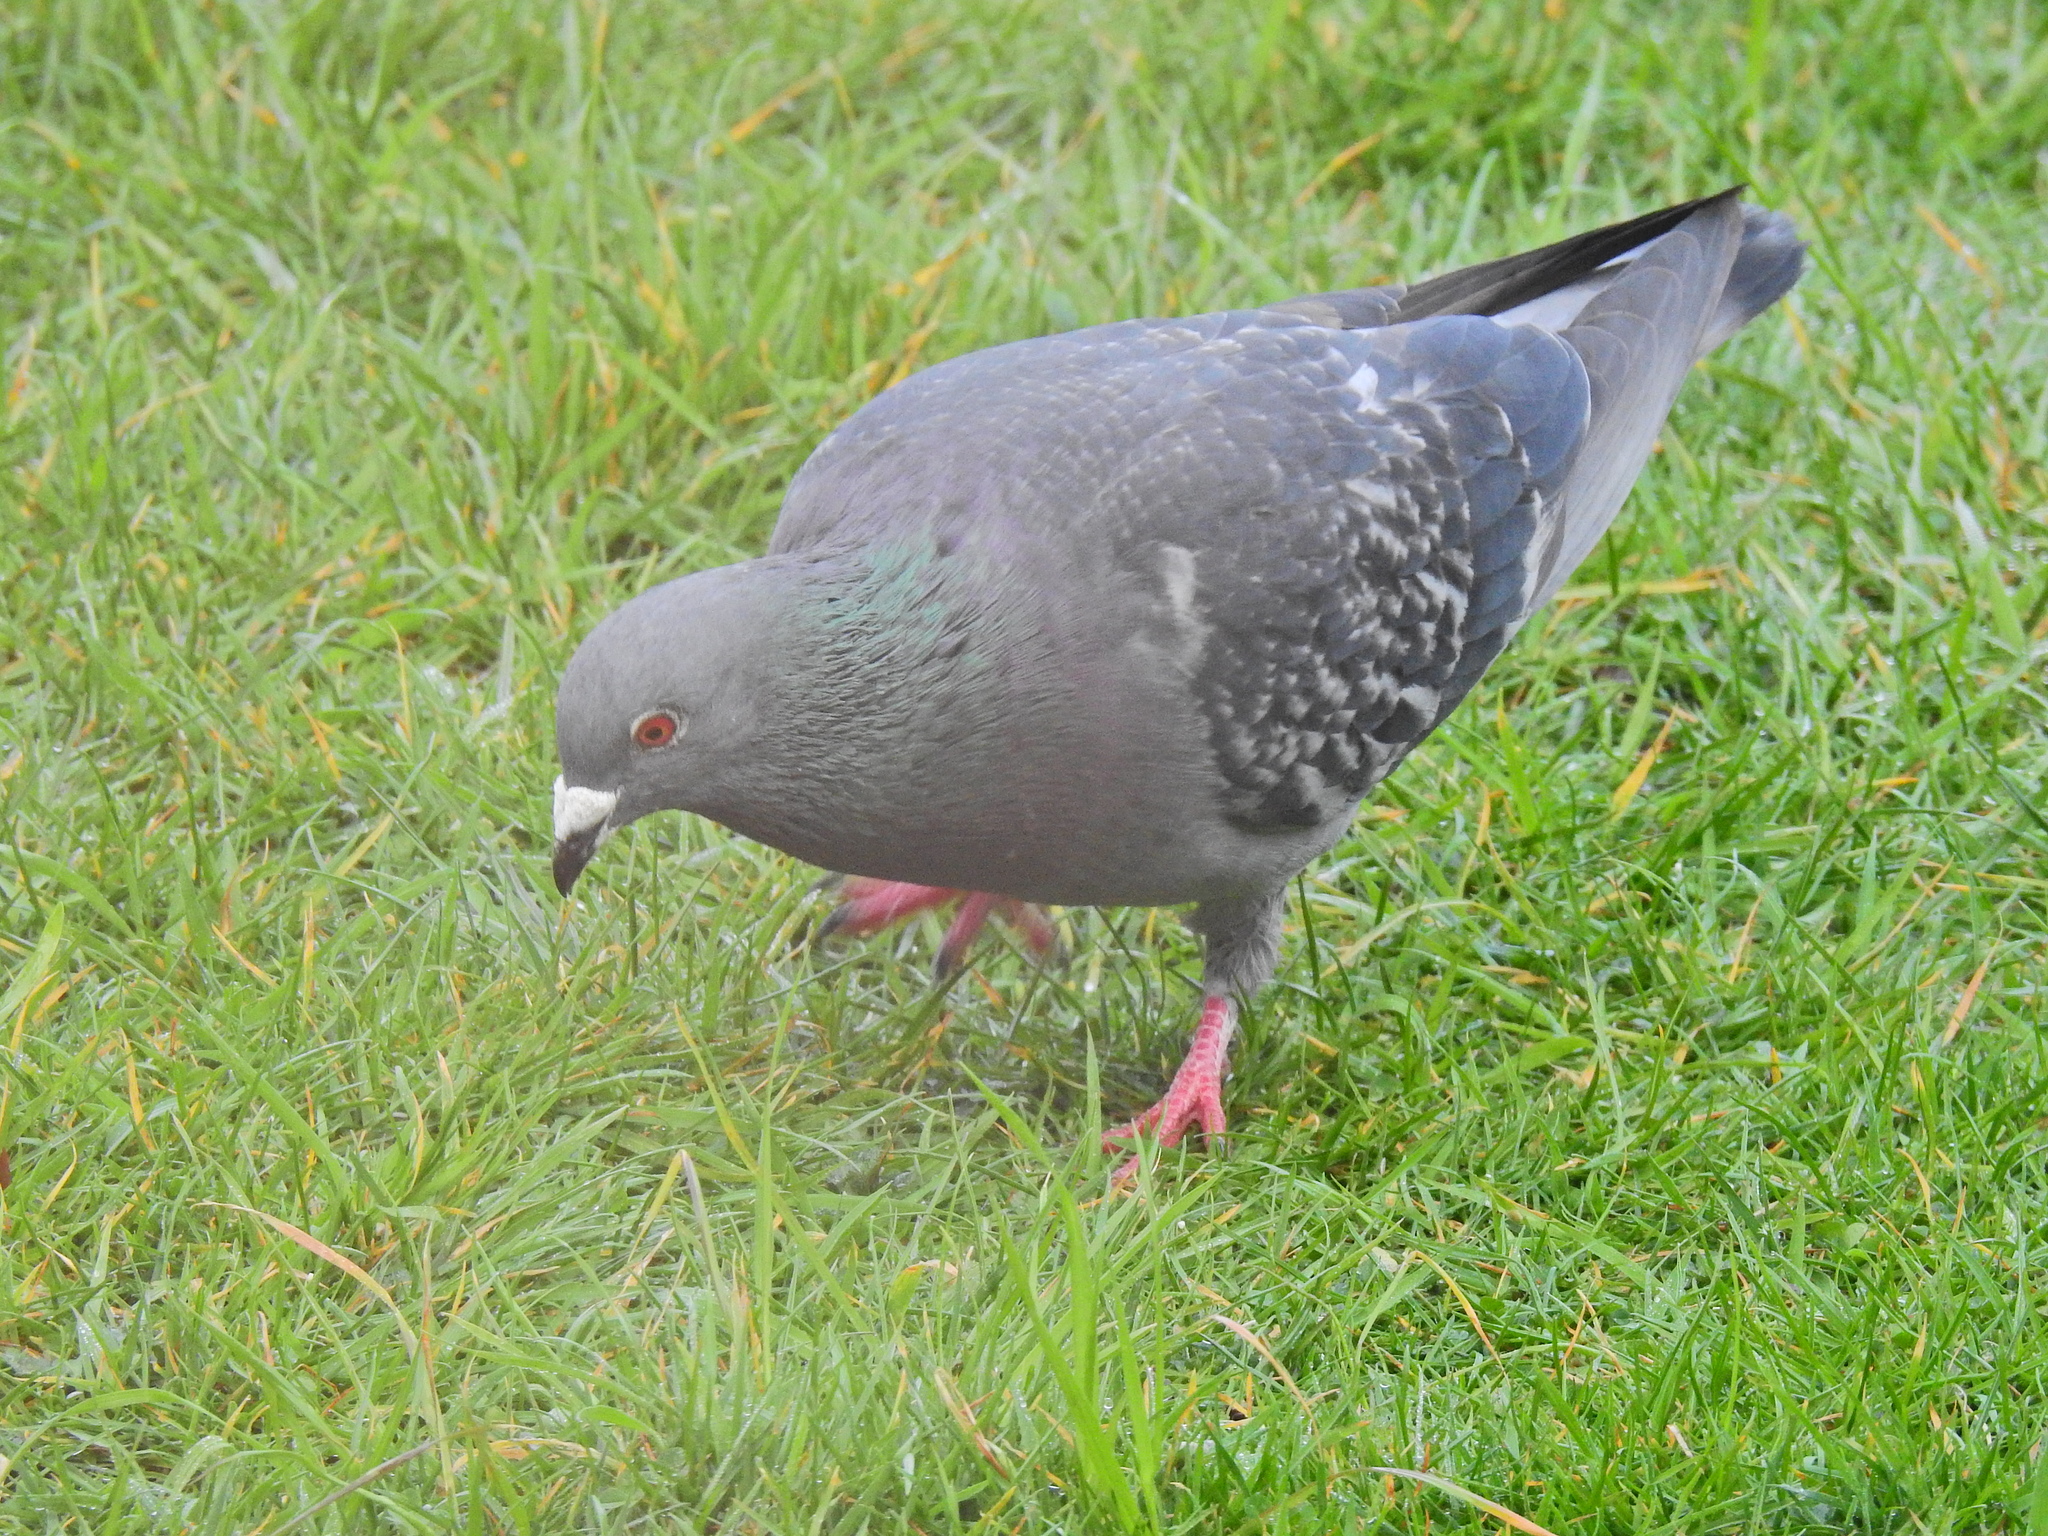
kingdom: Animalia
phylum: Chordata
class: Aves
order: Columbiformes
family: Columbidae
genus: Columba
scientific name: Columba livia
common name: Rock pigeon
